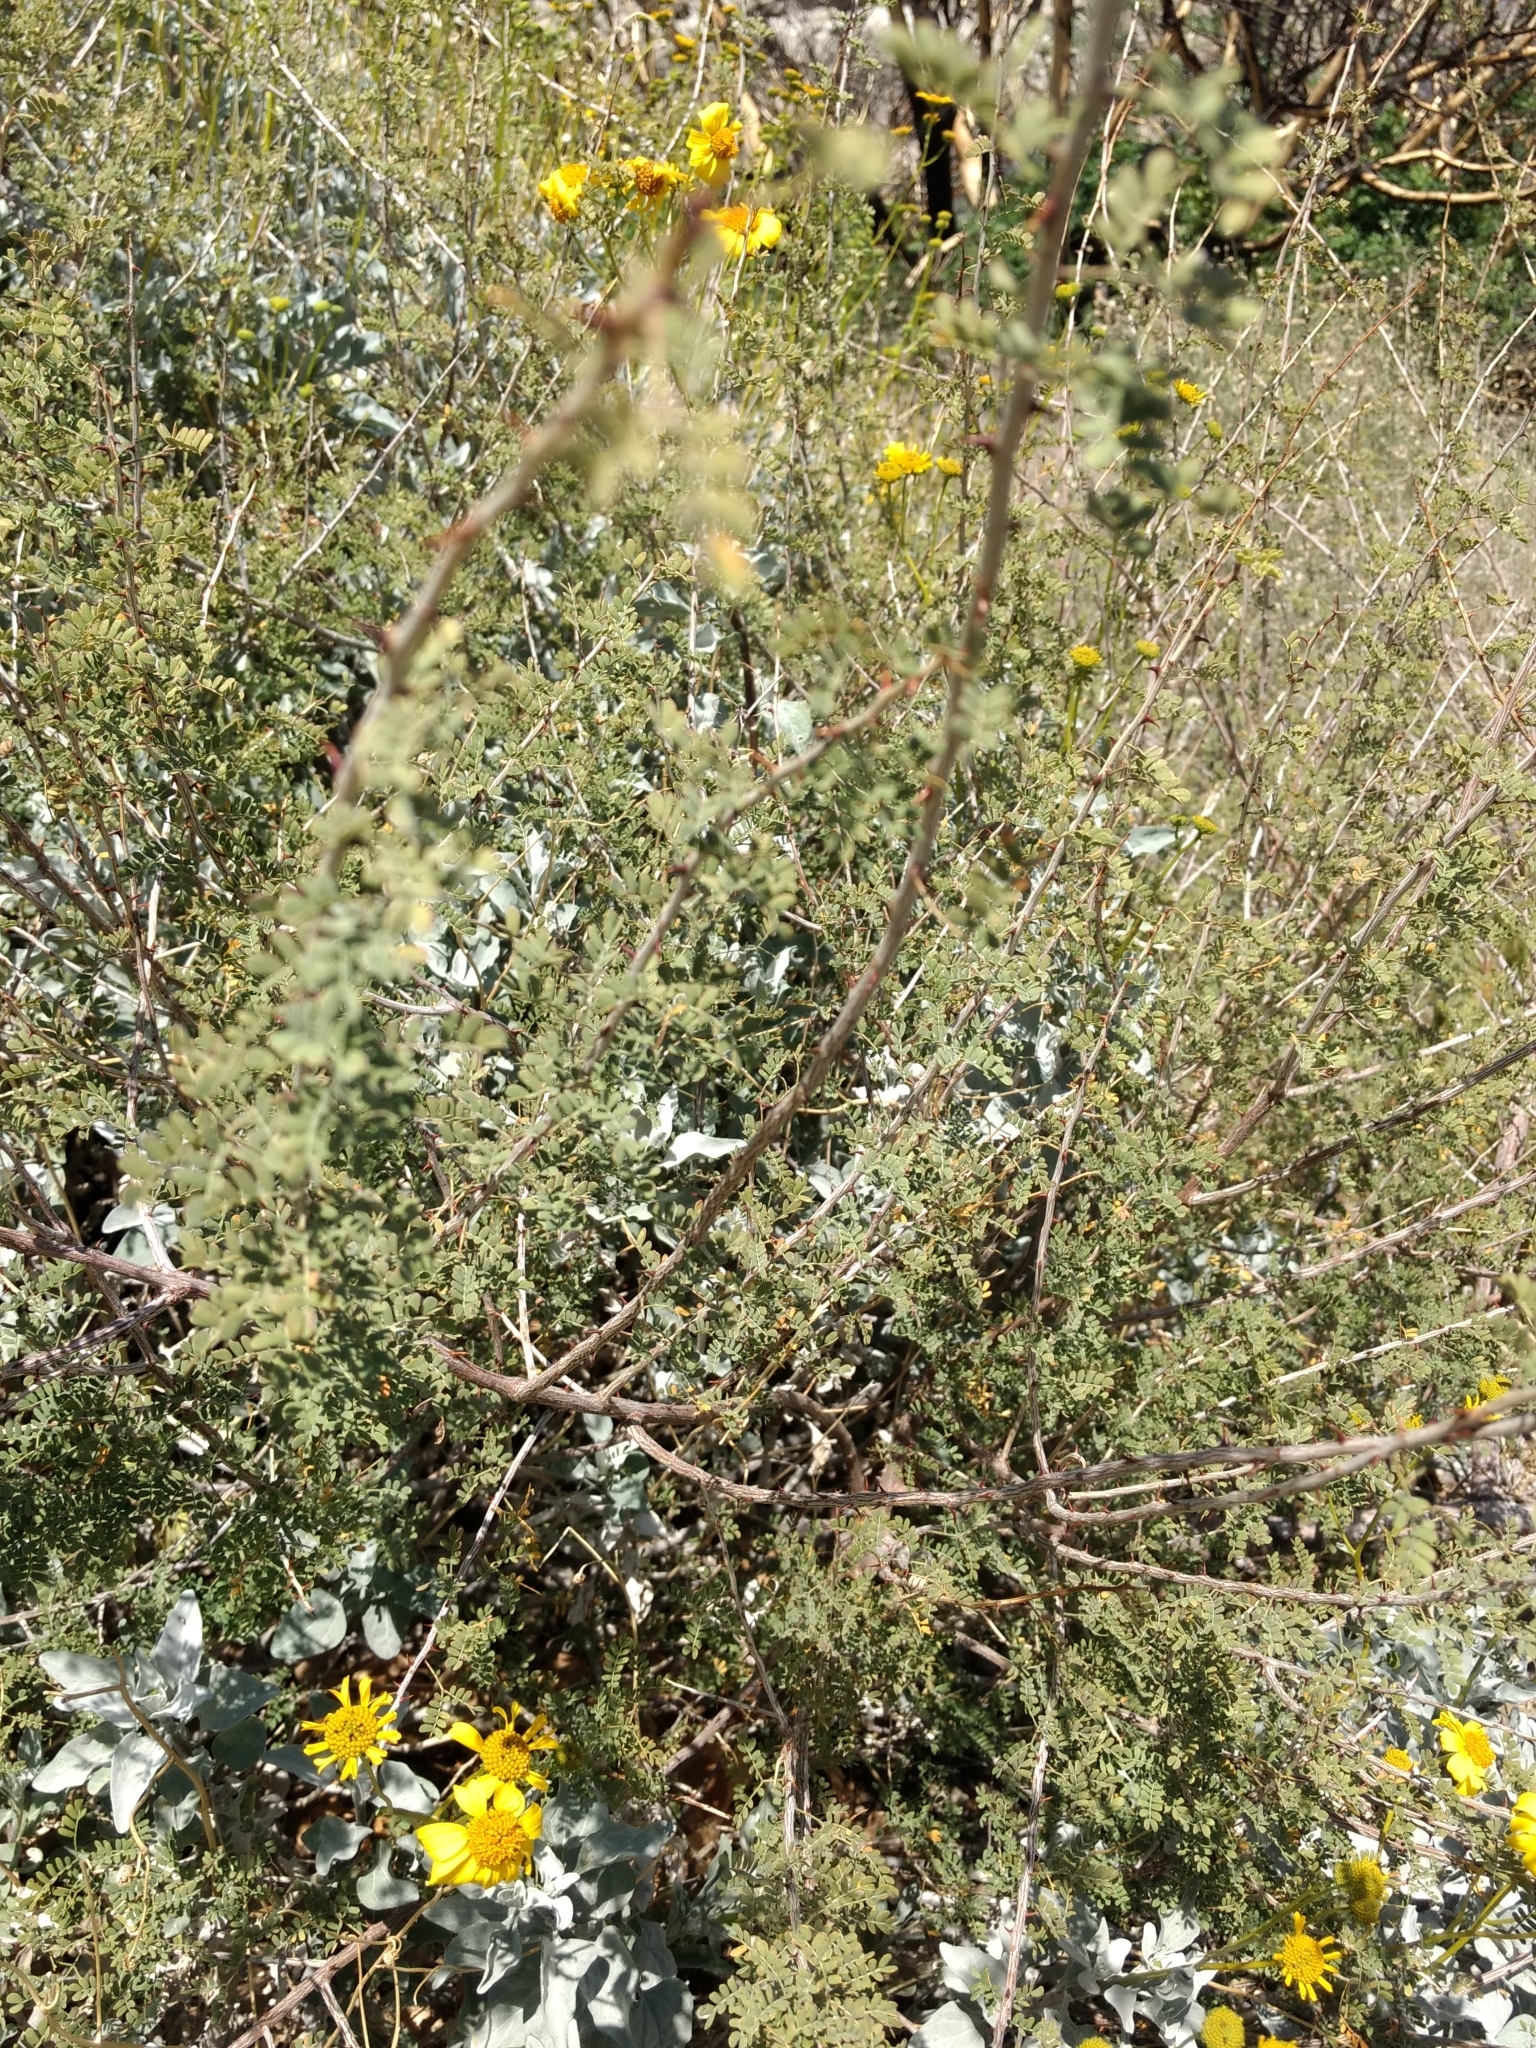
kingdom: Plantae
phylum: Tracheophyta
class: Magnoliopsida
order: Fabales
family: Fabaceae
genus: Senegalia
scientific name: Senegalia greggii
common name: Texas-mimosa
